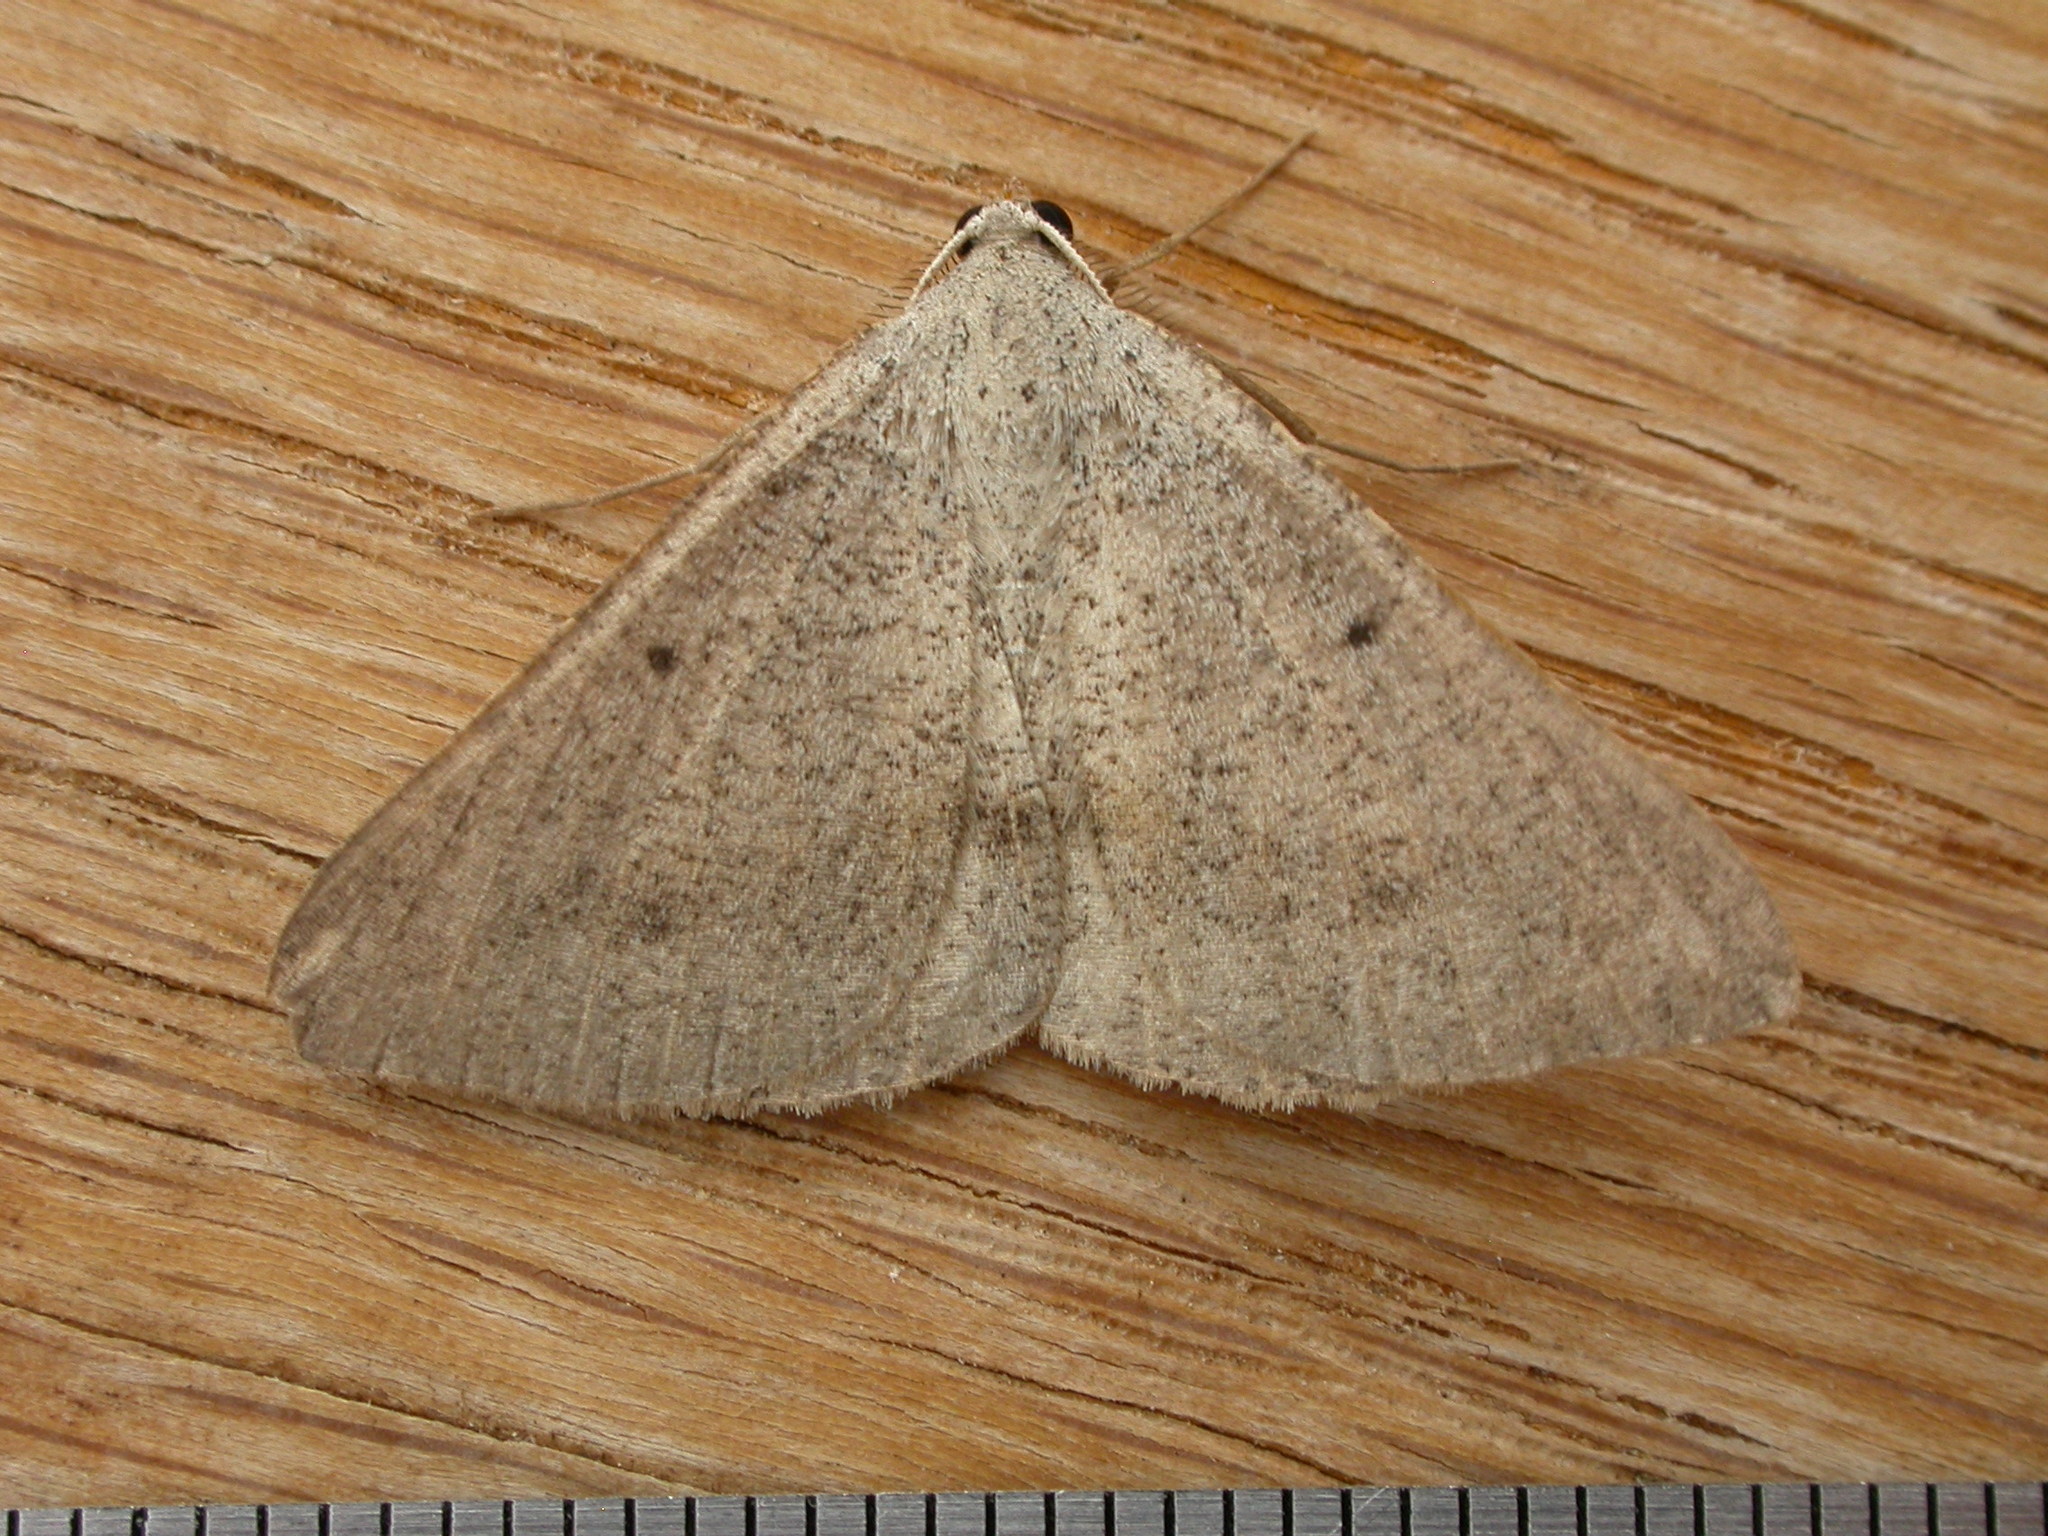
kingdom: Animalia
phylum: Arthropoda
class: Insecta
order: Lepidoptera
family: Geometridae
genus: Isturgia
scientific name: Isturgia
